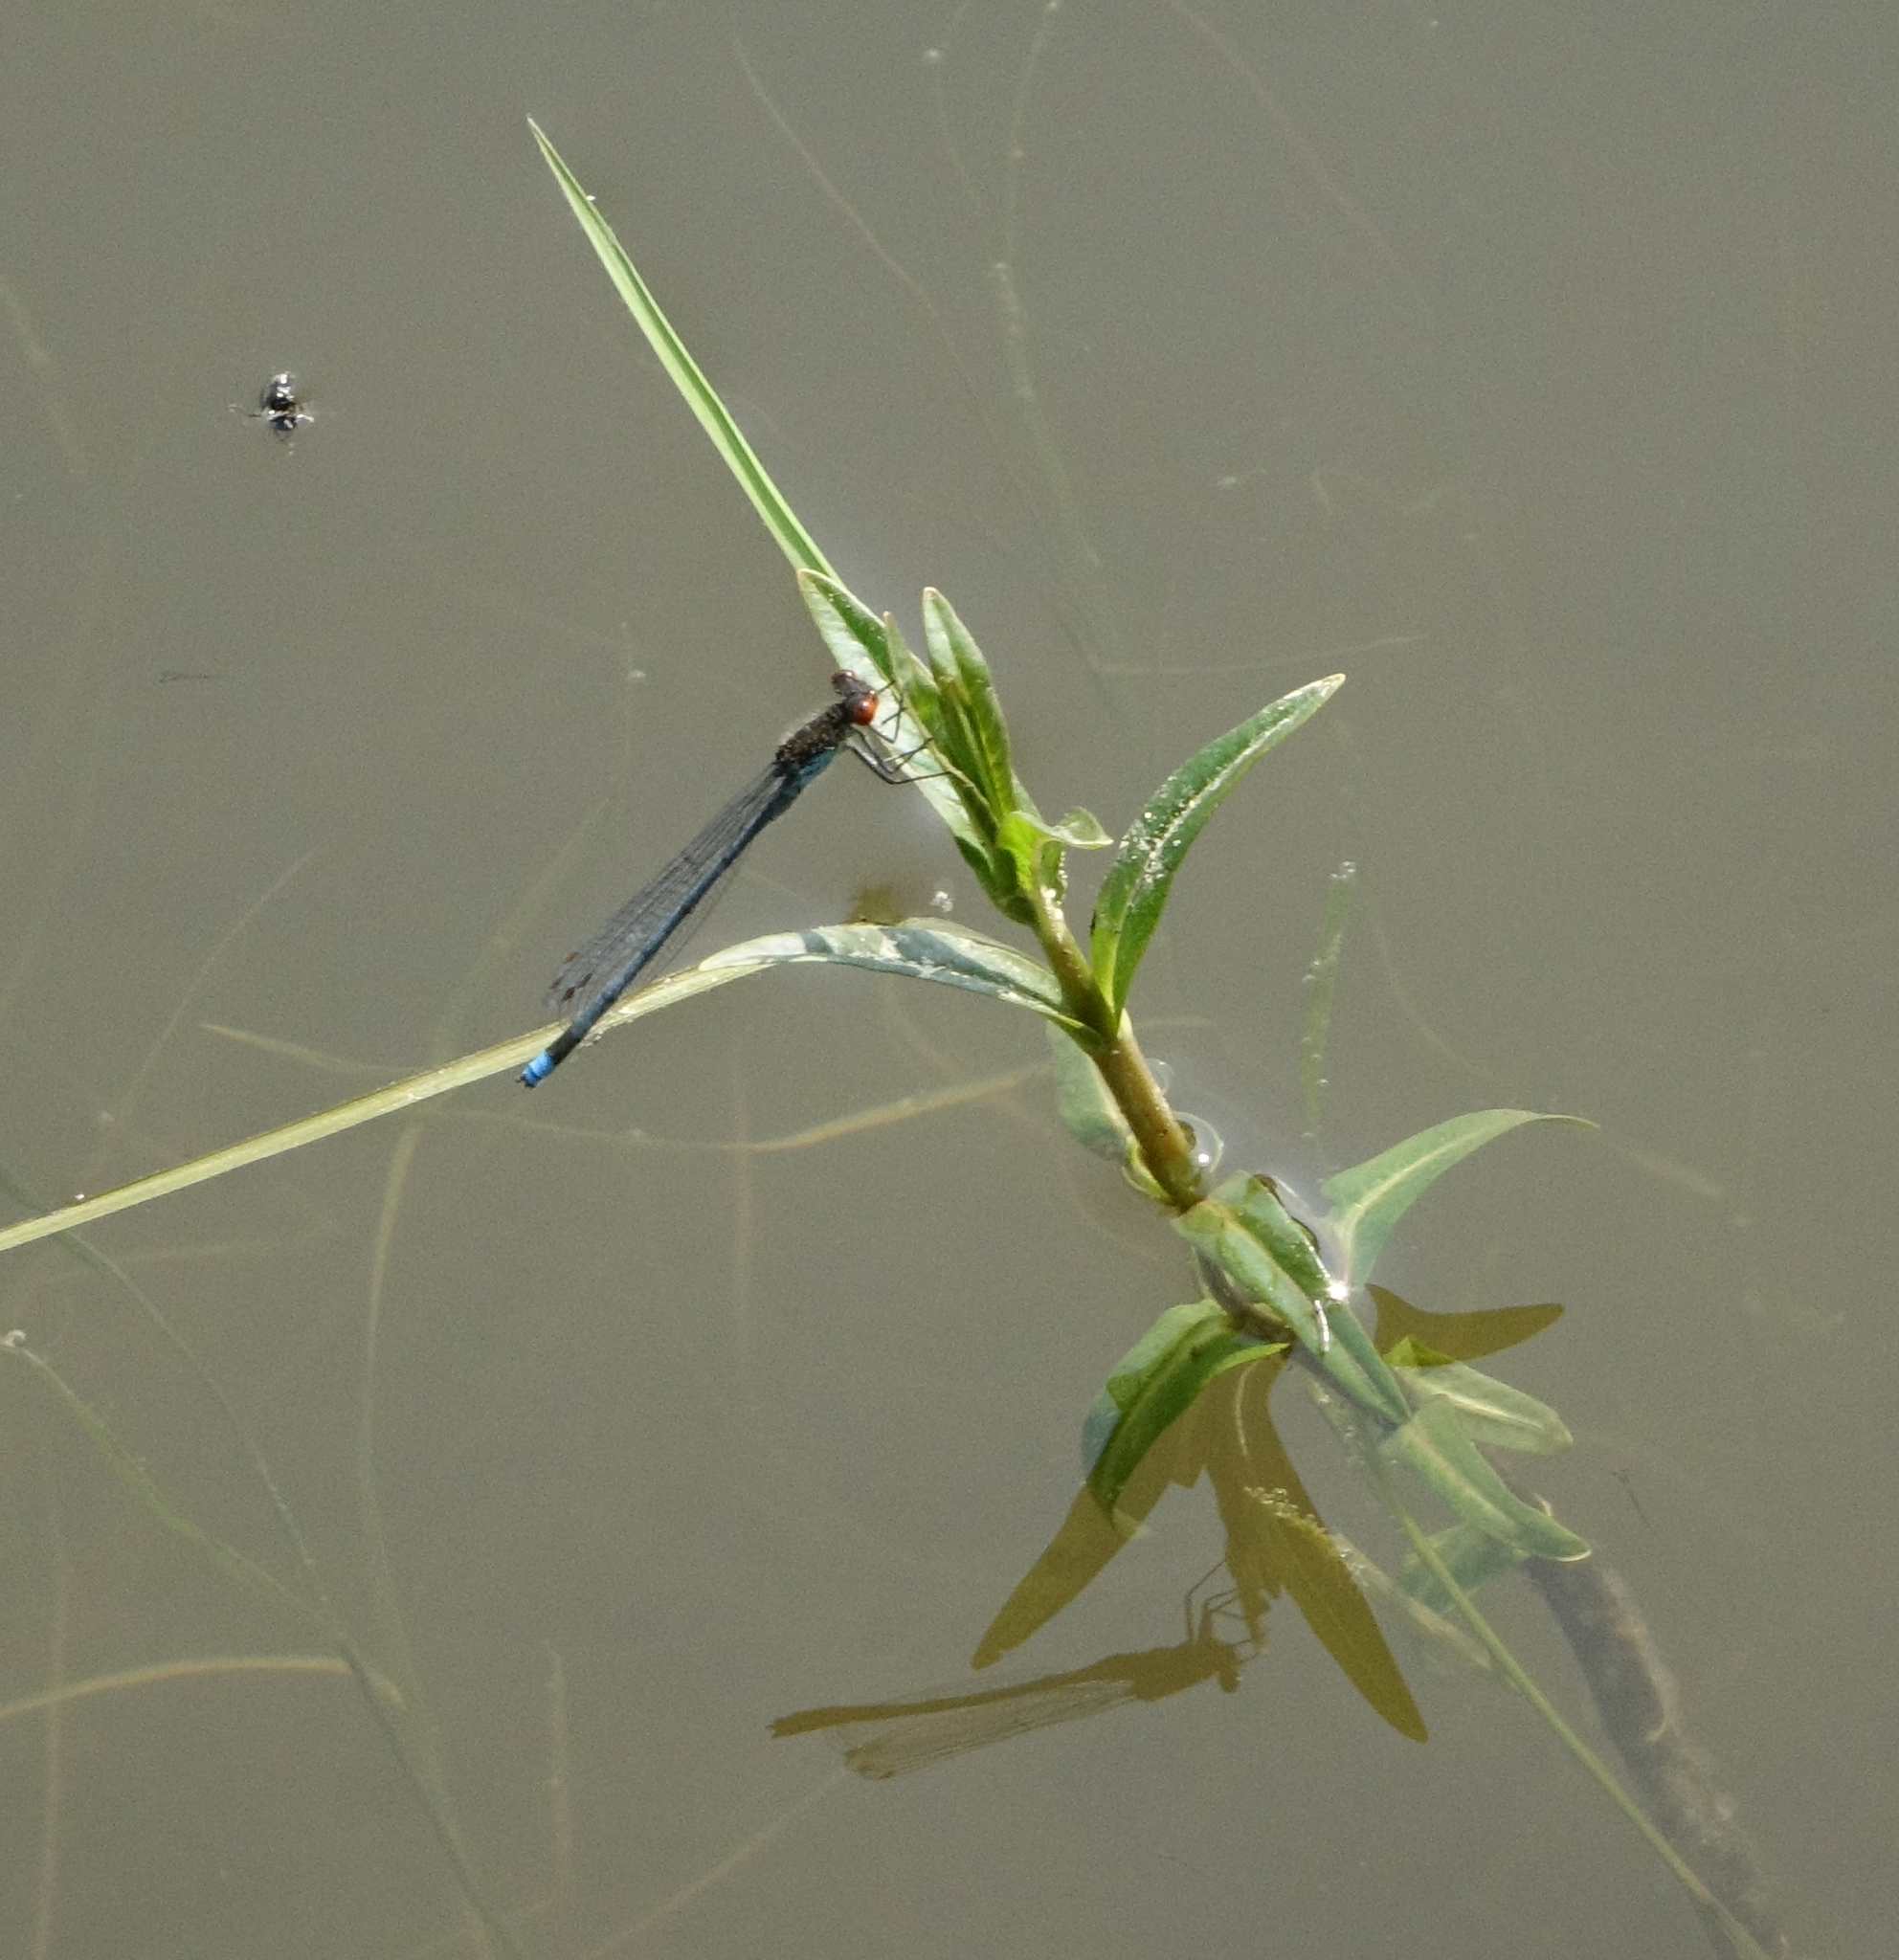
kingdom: Animalia
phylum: Arthropoda
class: Insecta
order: Odonata
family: Coenagrionidae
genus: Erythromma
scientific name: Erythromma najas
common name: Red-eyed damselfly
